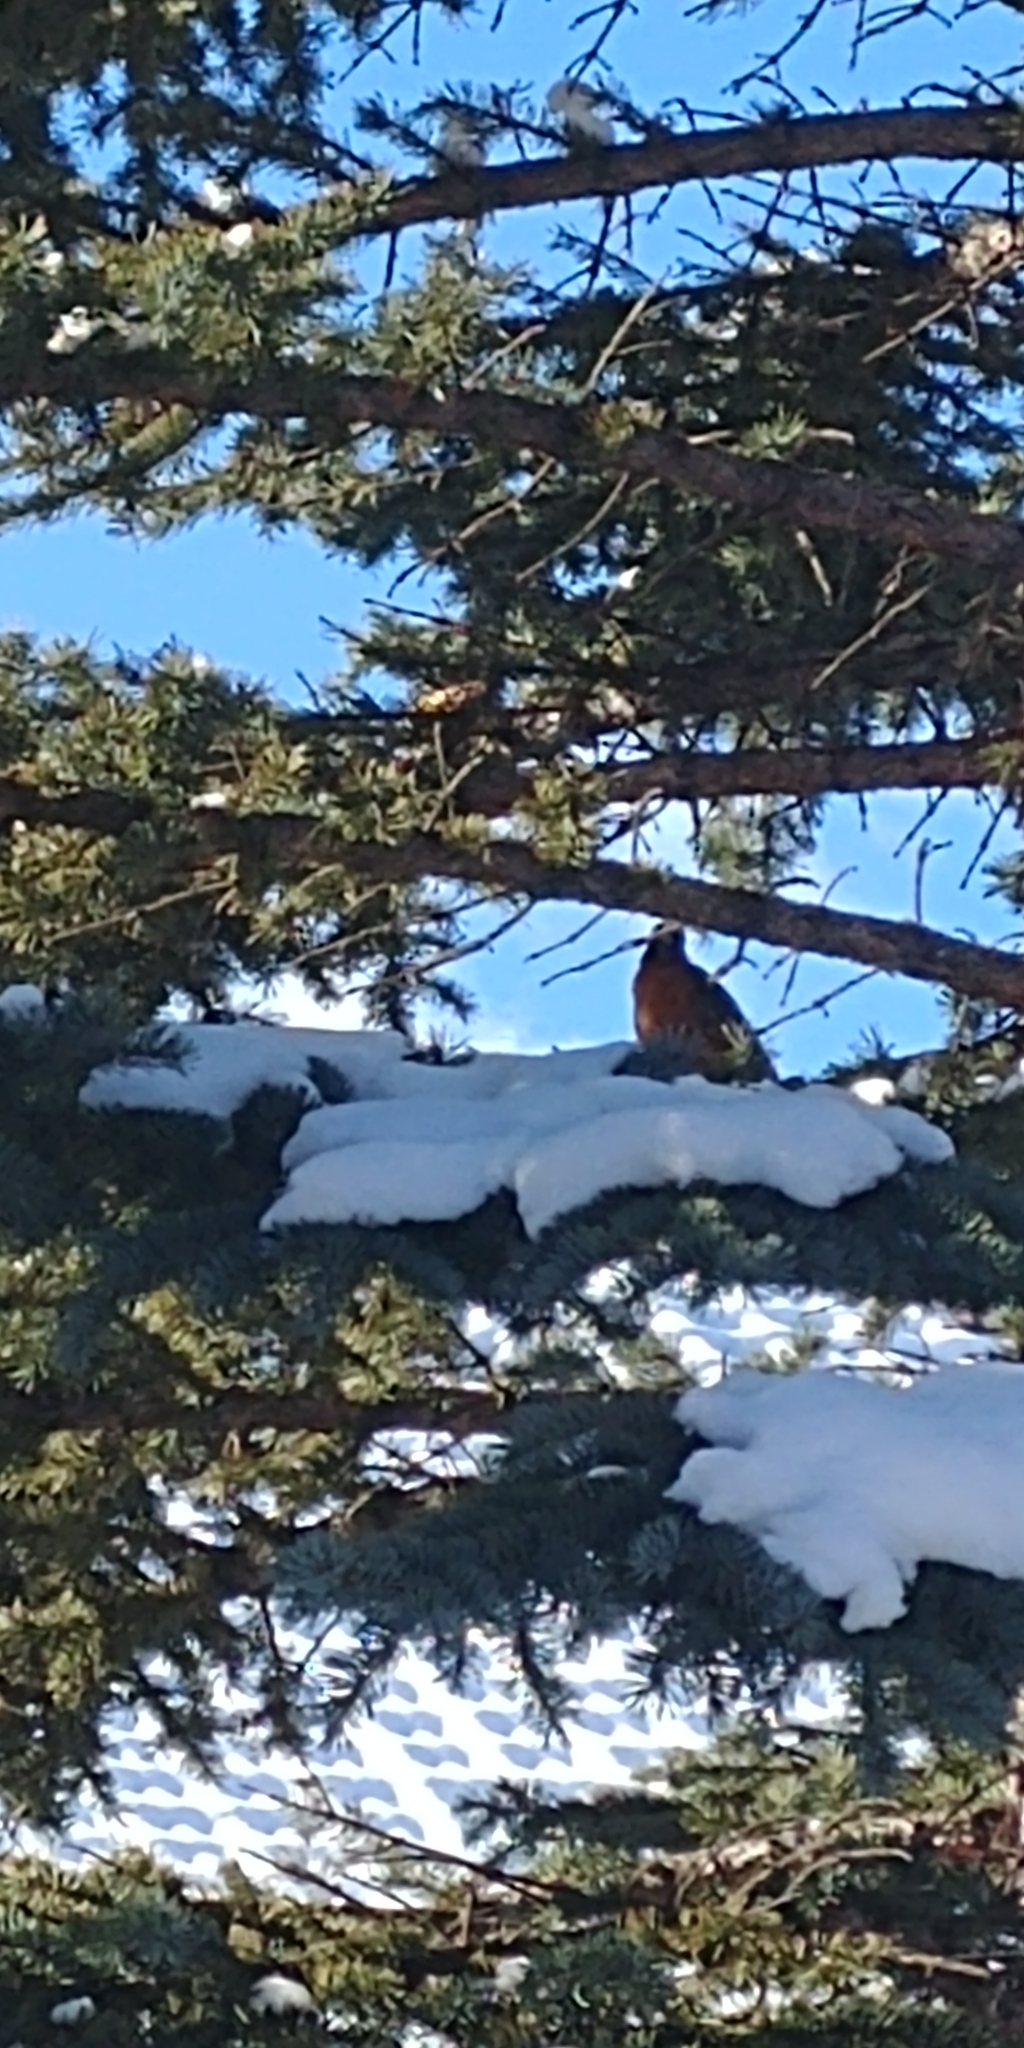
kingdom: Animalia
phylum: Chordata
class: Aves
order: Passeriformes
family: Turdidae
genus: Turdus
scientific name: Turdus migratorius
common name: American robin
